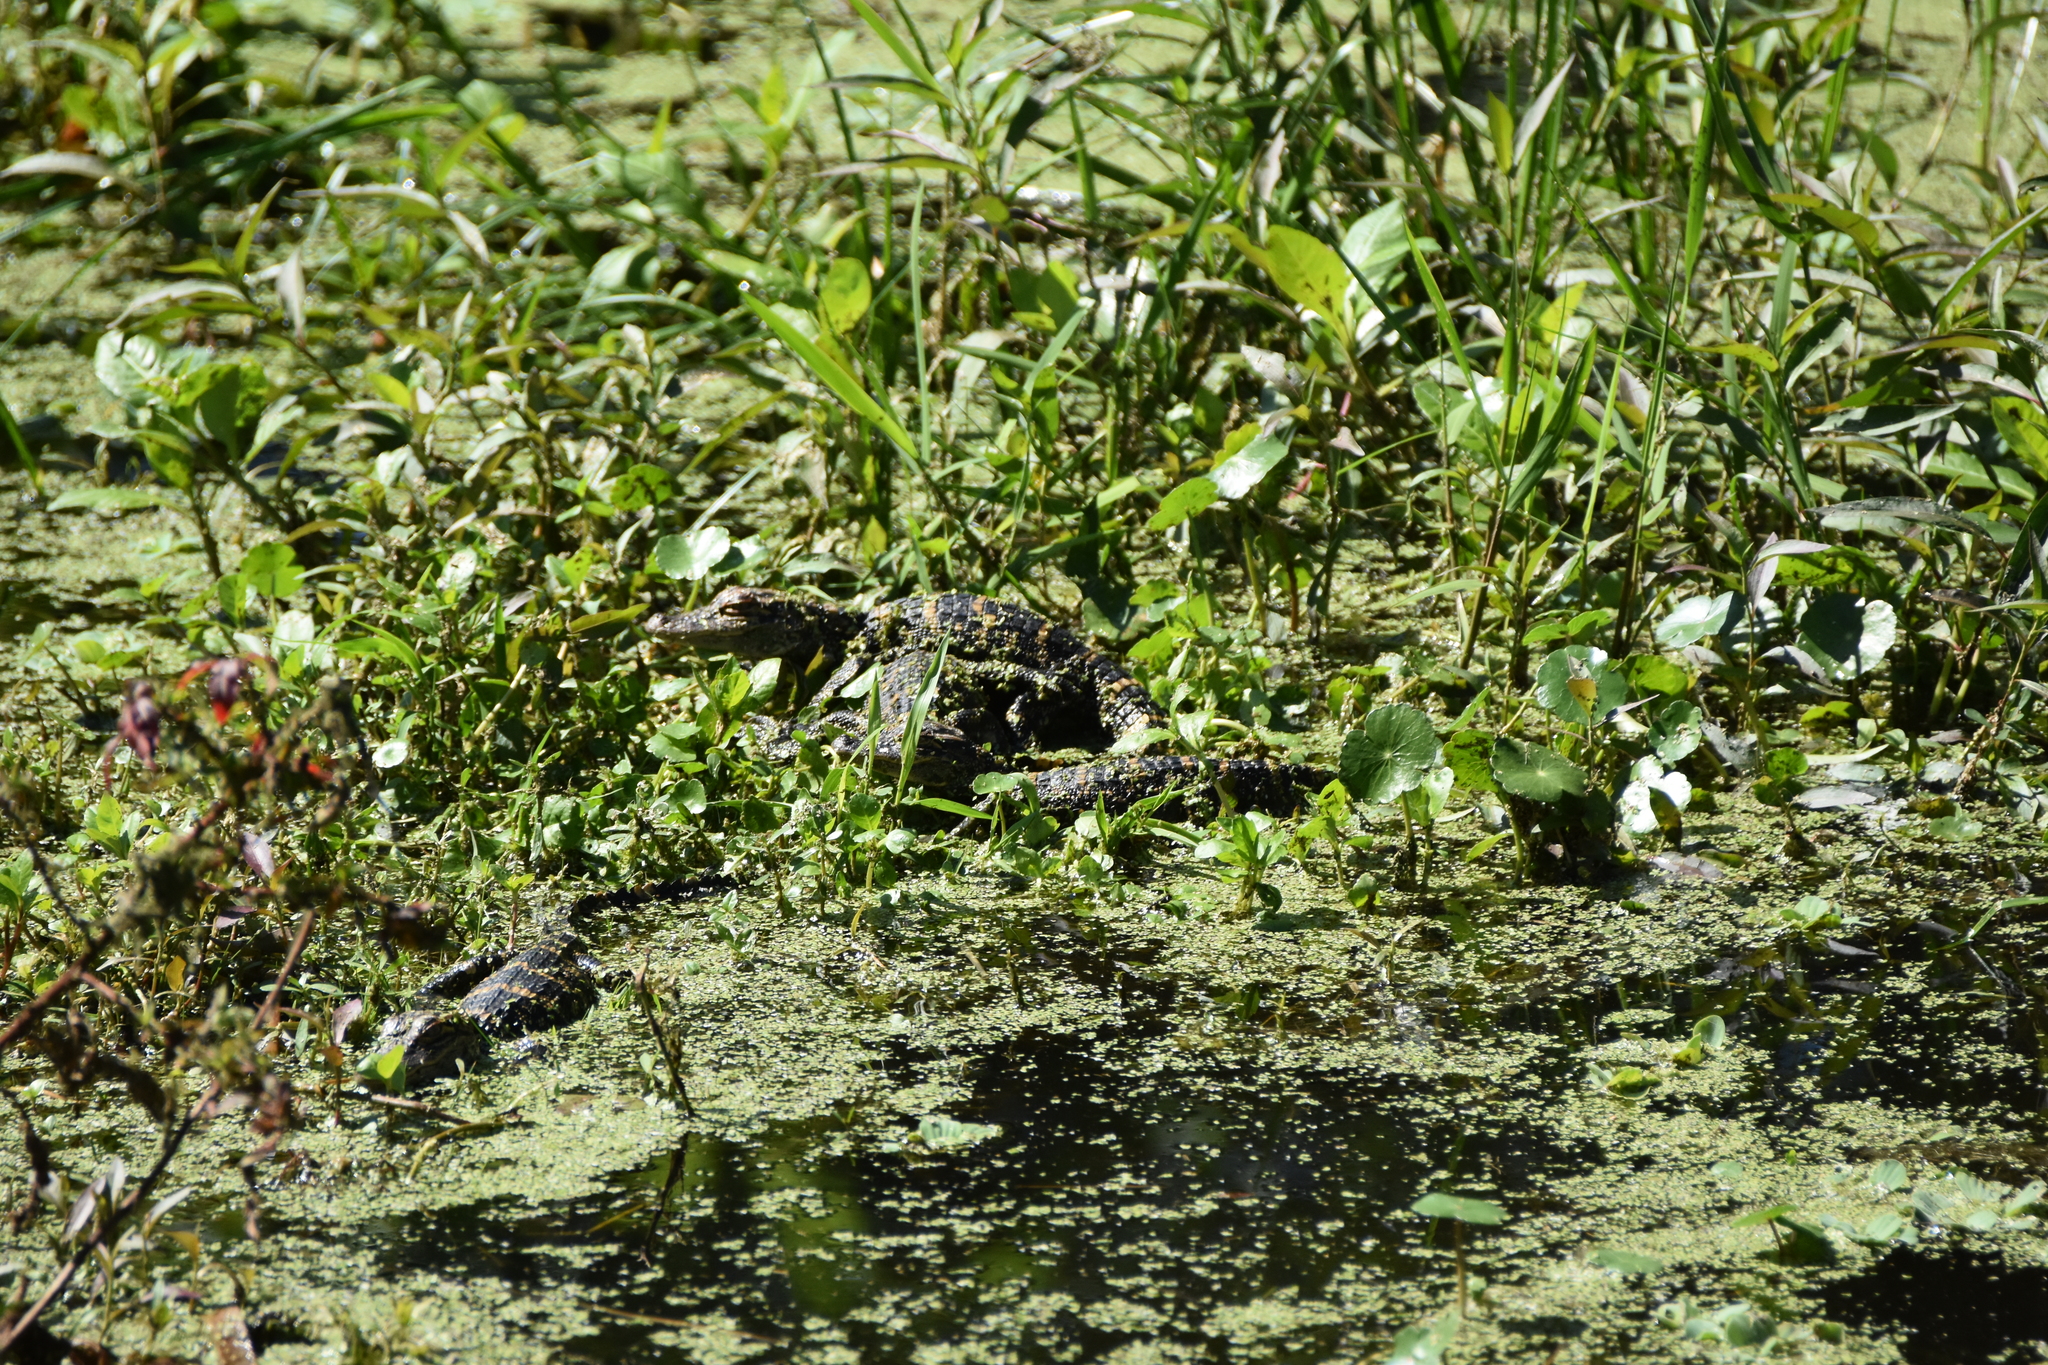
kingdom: Animalia
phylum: Chordata
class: Crocodylia
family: Alligatoridae
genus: Alligator
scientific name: Alligator mississippiensis
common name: American alligator
